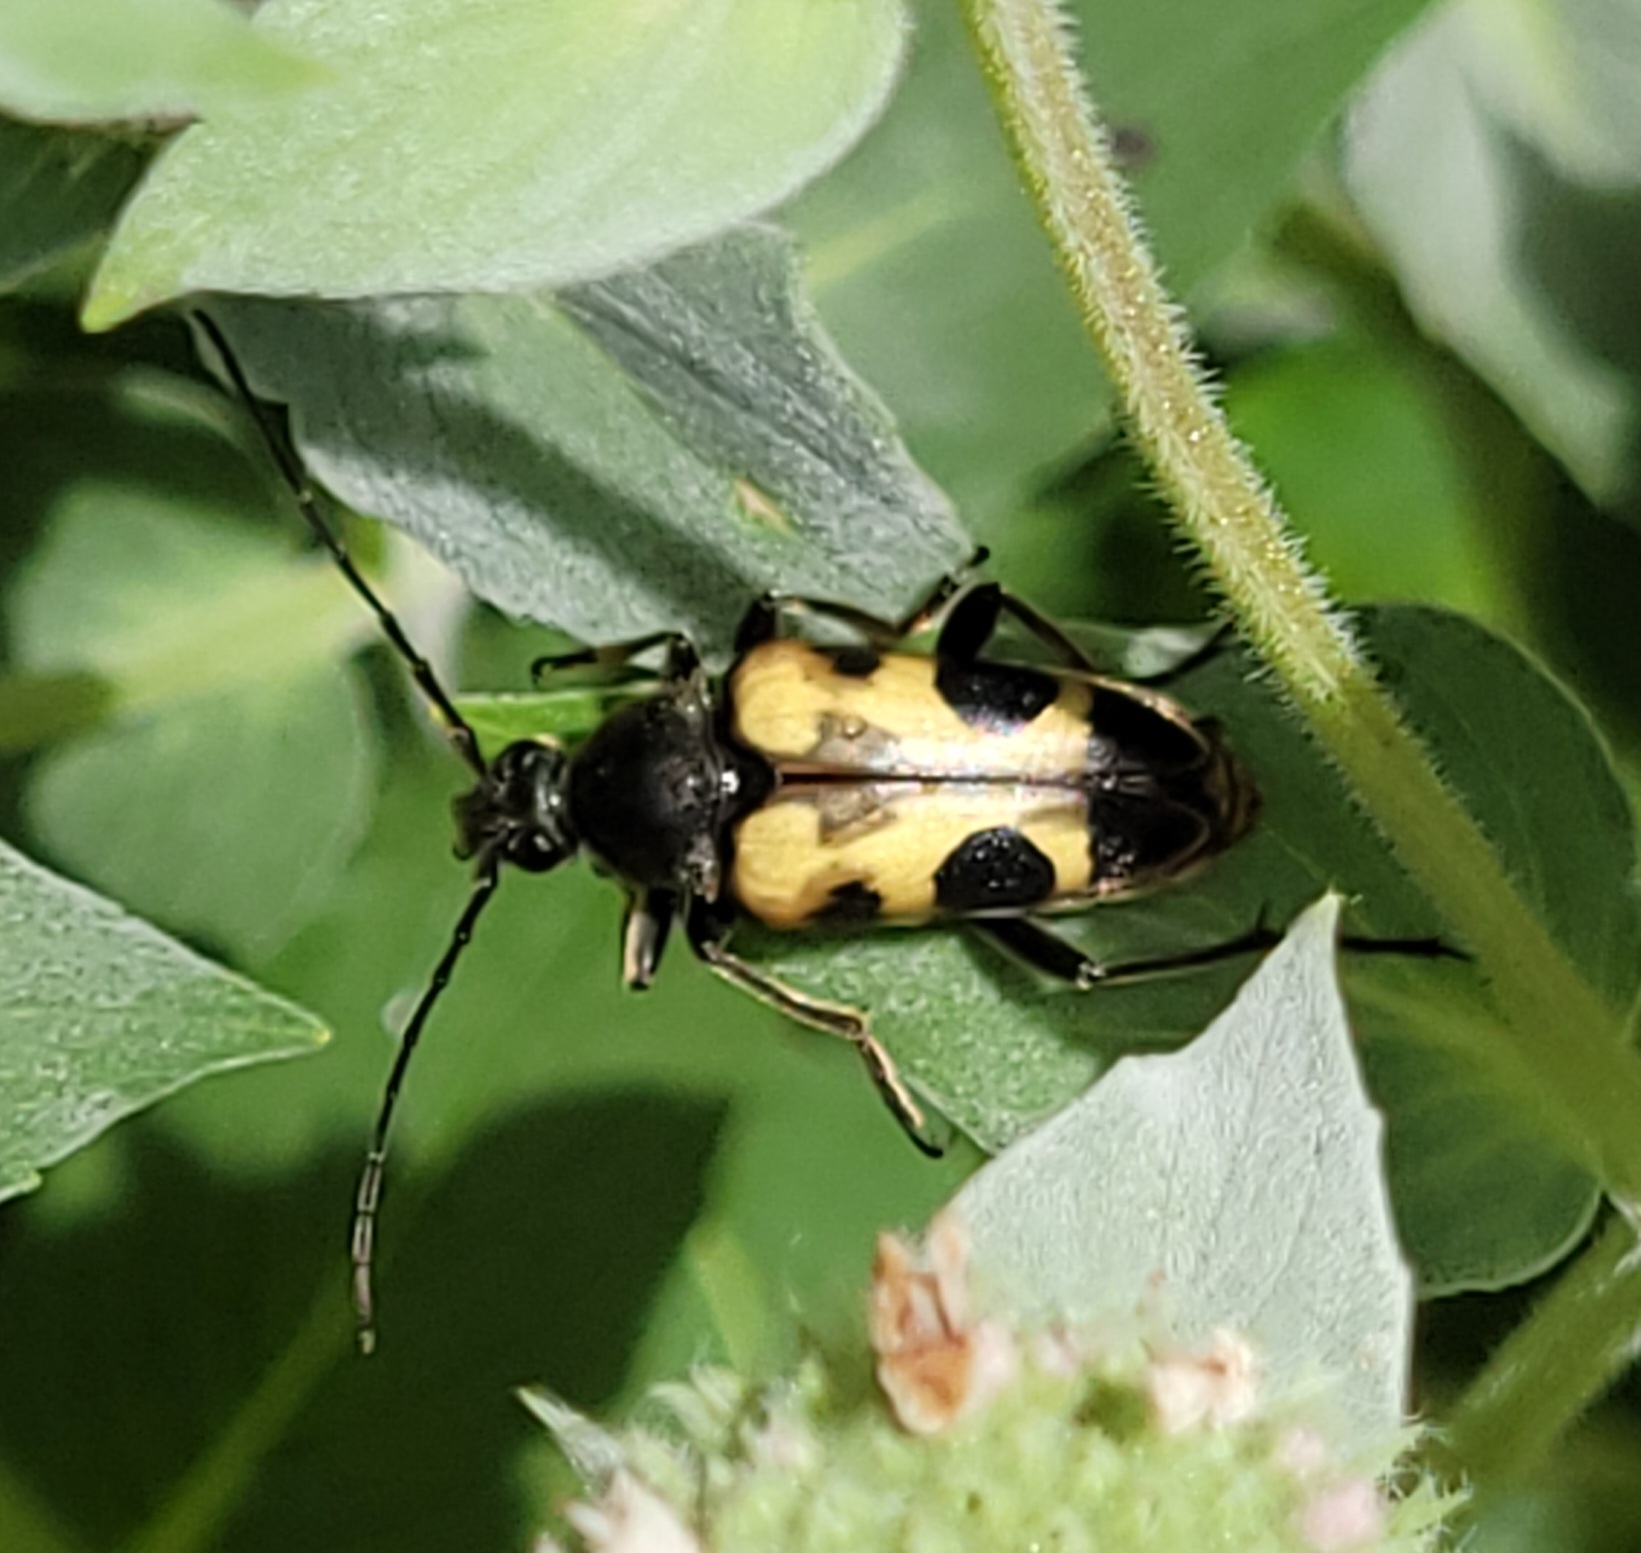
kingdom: Animalia
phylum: Arthropoda
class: Insecta
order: Coleoptera
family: Cerambycidae
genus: Judolia
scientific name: Judolia cordifera
